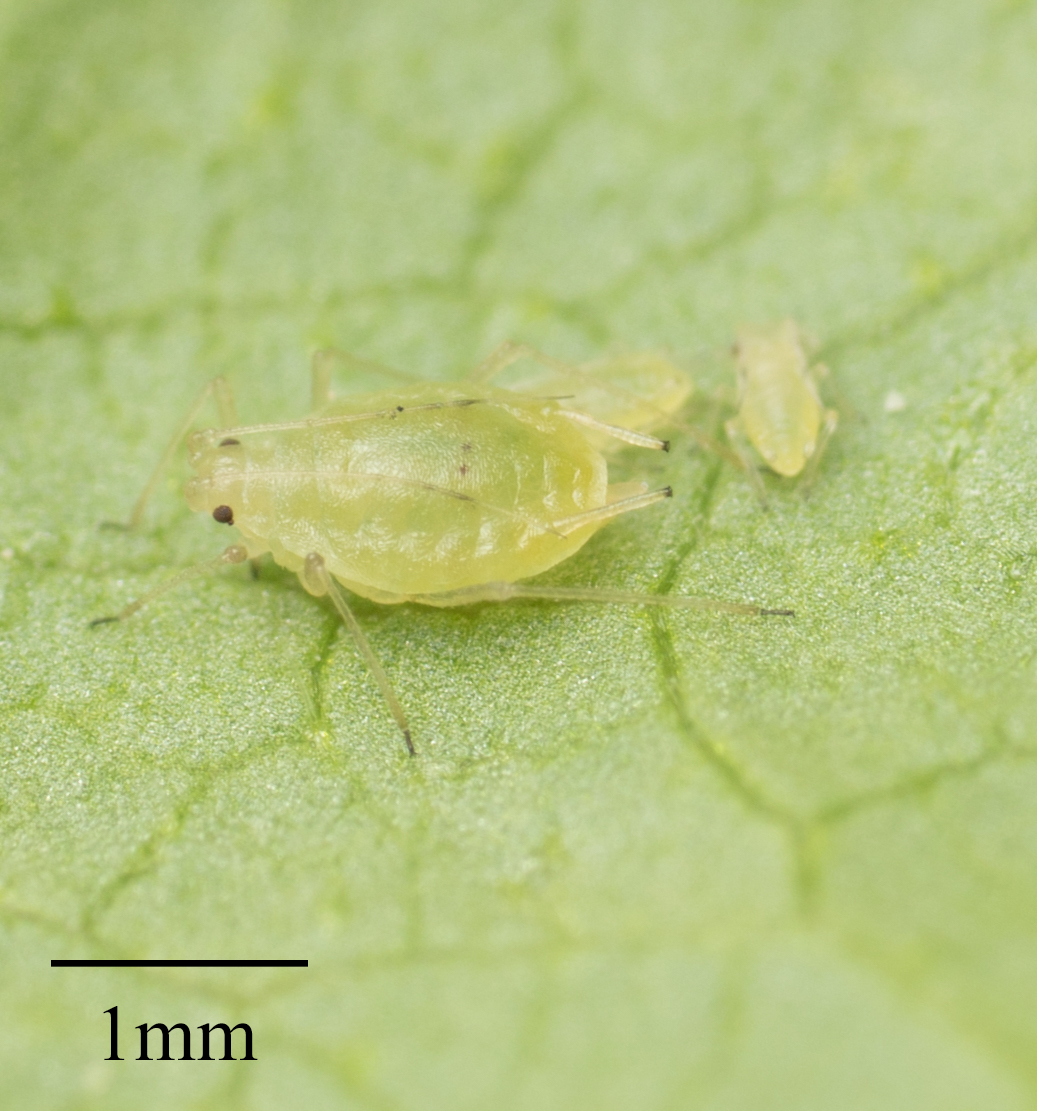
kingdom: Animalia
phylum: Arthropoda
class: Insecta
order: Hemiptera
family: Aphididae
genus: Myzus
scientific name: Myzus persicae
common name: Green peach aphid
